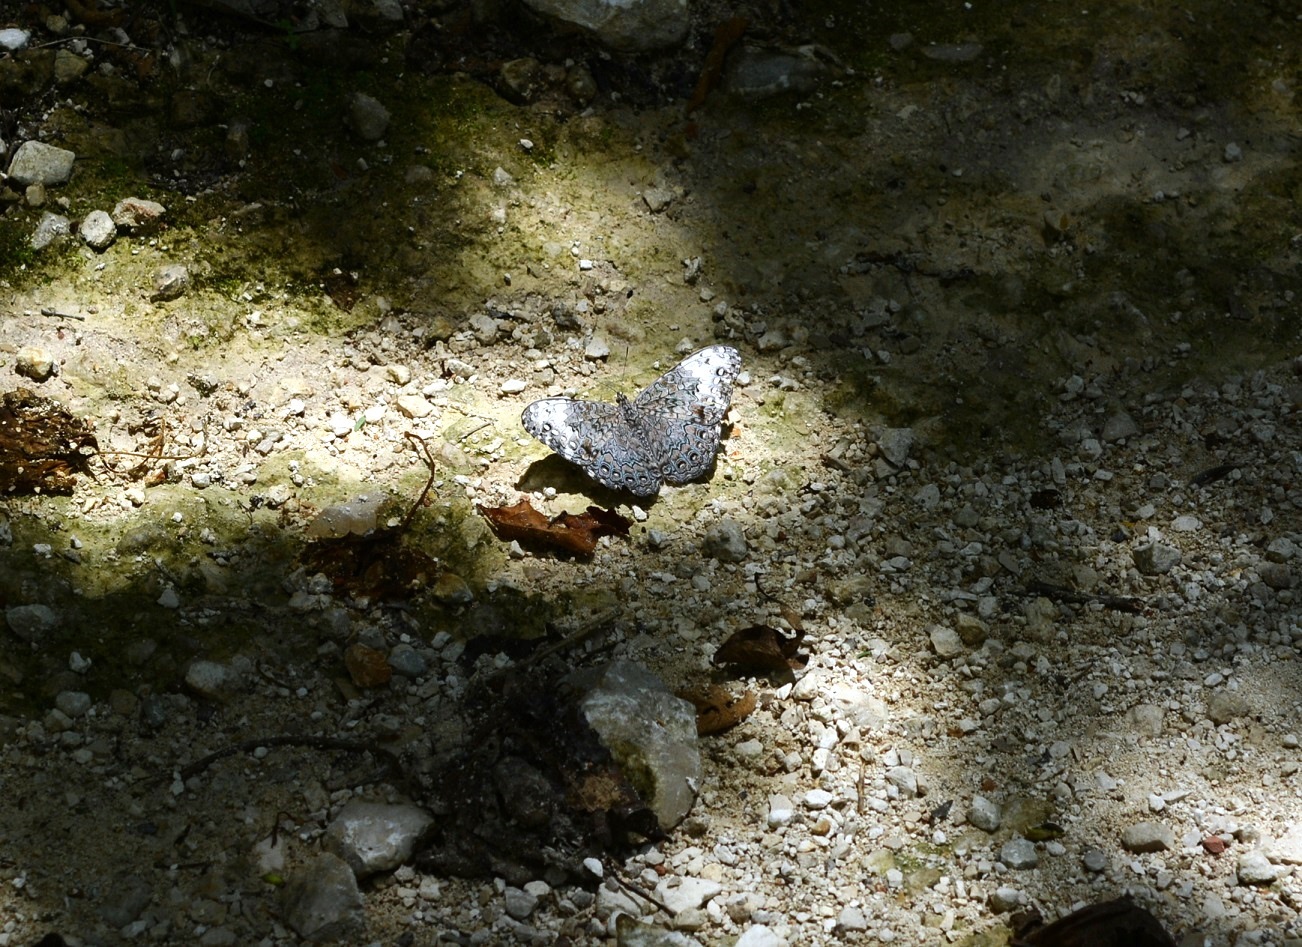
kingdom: Animalia
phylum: Arthropoda
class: Insecta
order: Lepidoptera
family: Nymphalidae
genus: Hamadryas
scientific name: Hamadryas glauconome
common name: Glaucous cracker
